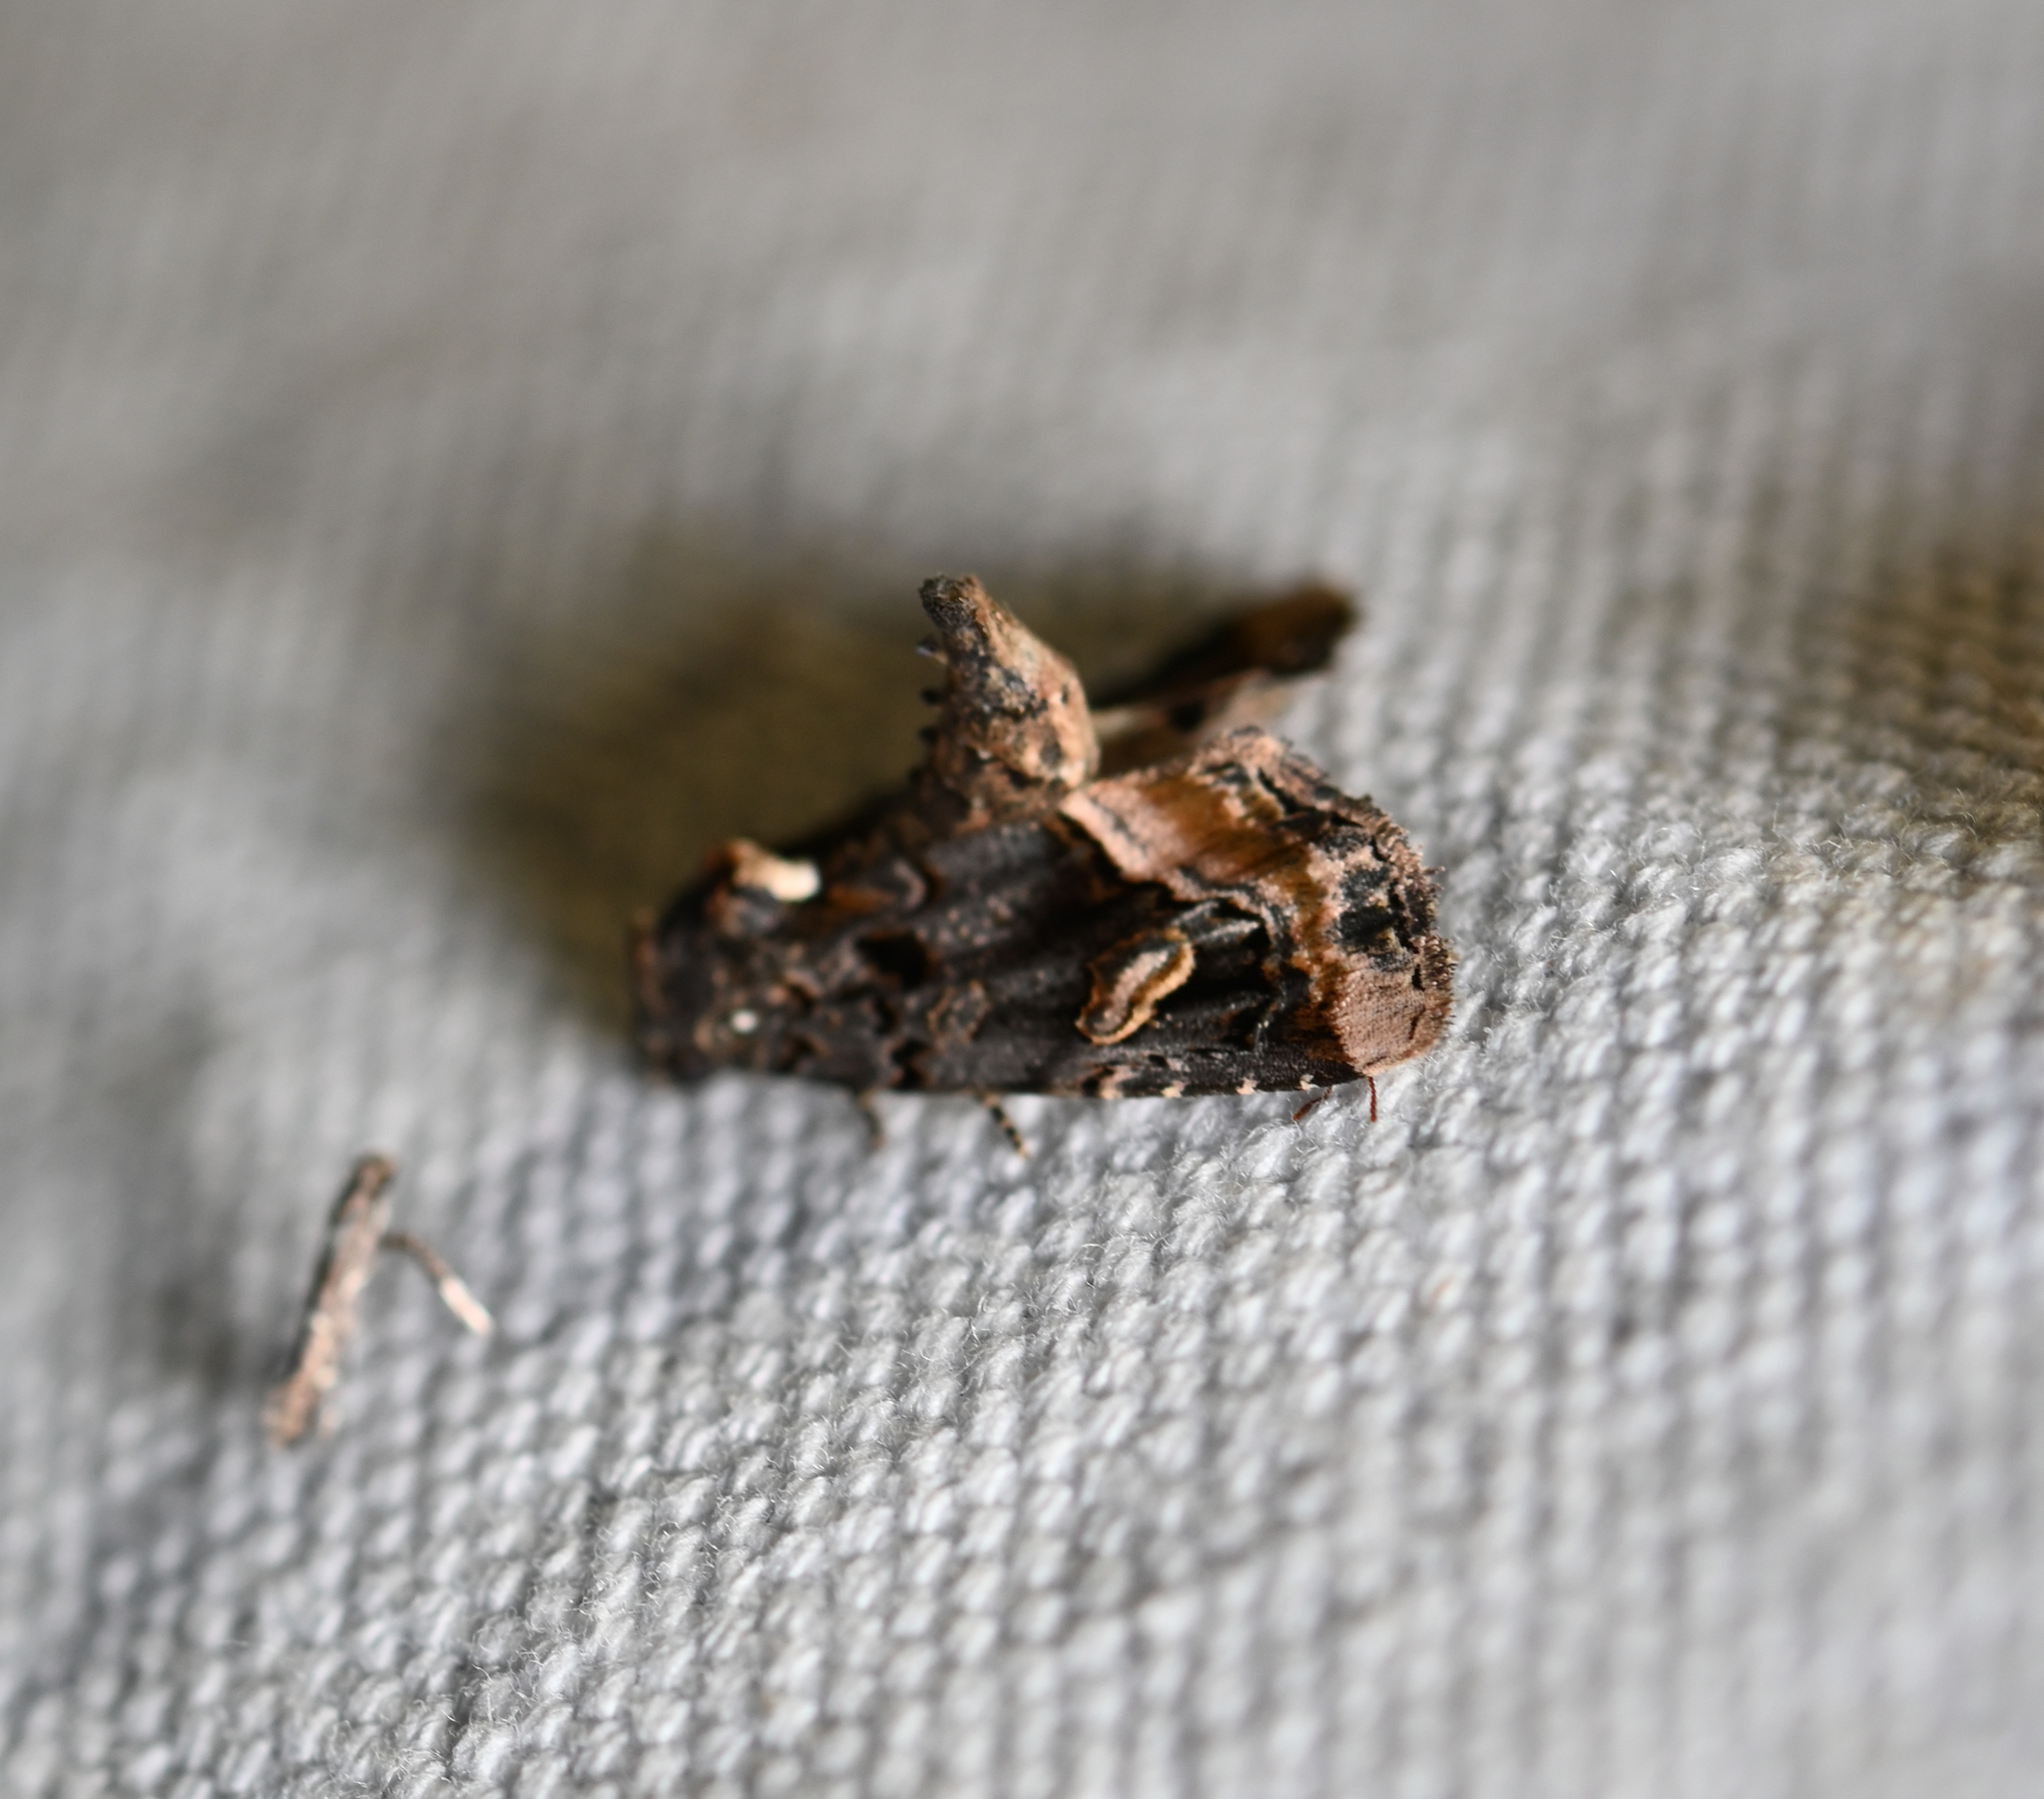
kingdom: Animalia
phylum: Arthropoda
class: Insecta
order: Lepidoptera
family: Noctuidae
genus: Homophoberia
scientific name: Homophoberia apicosa
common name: Black wedge-spot
